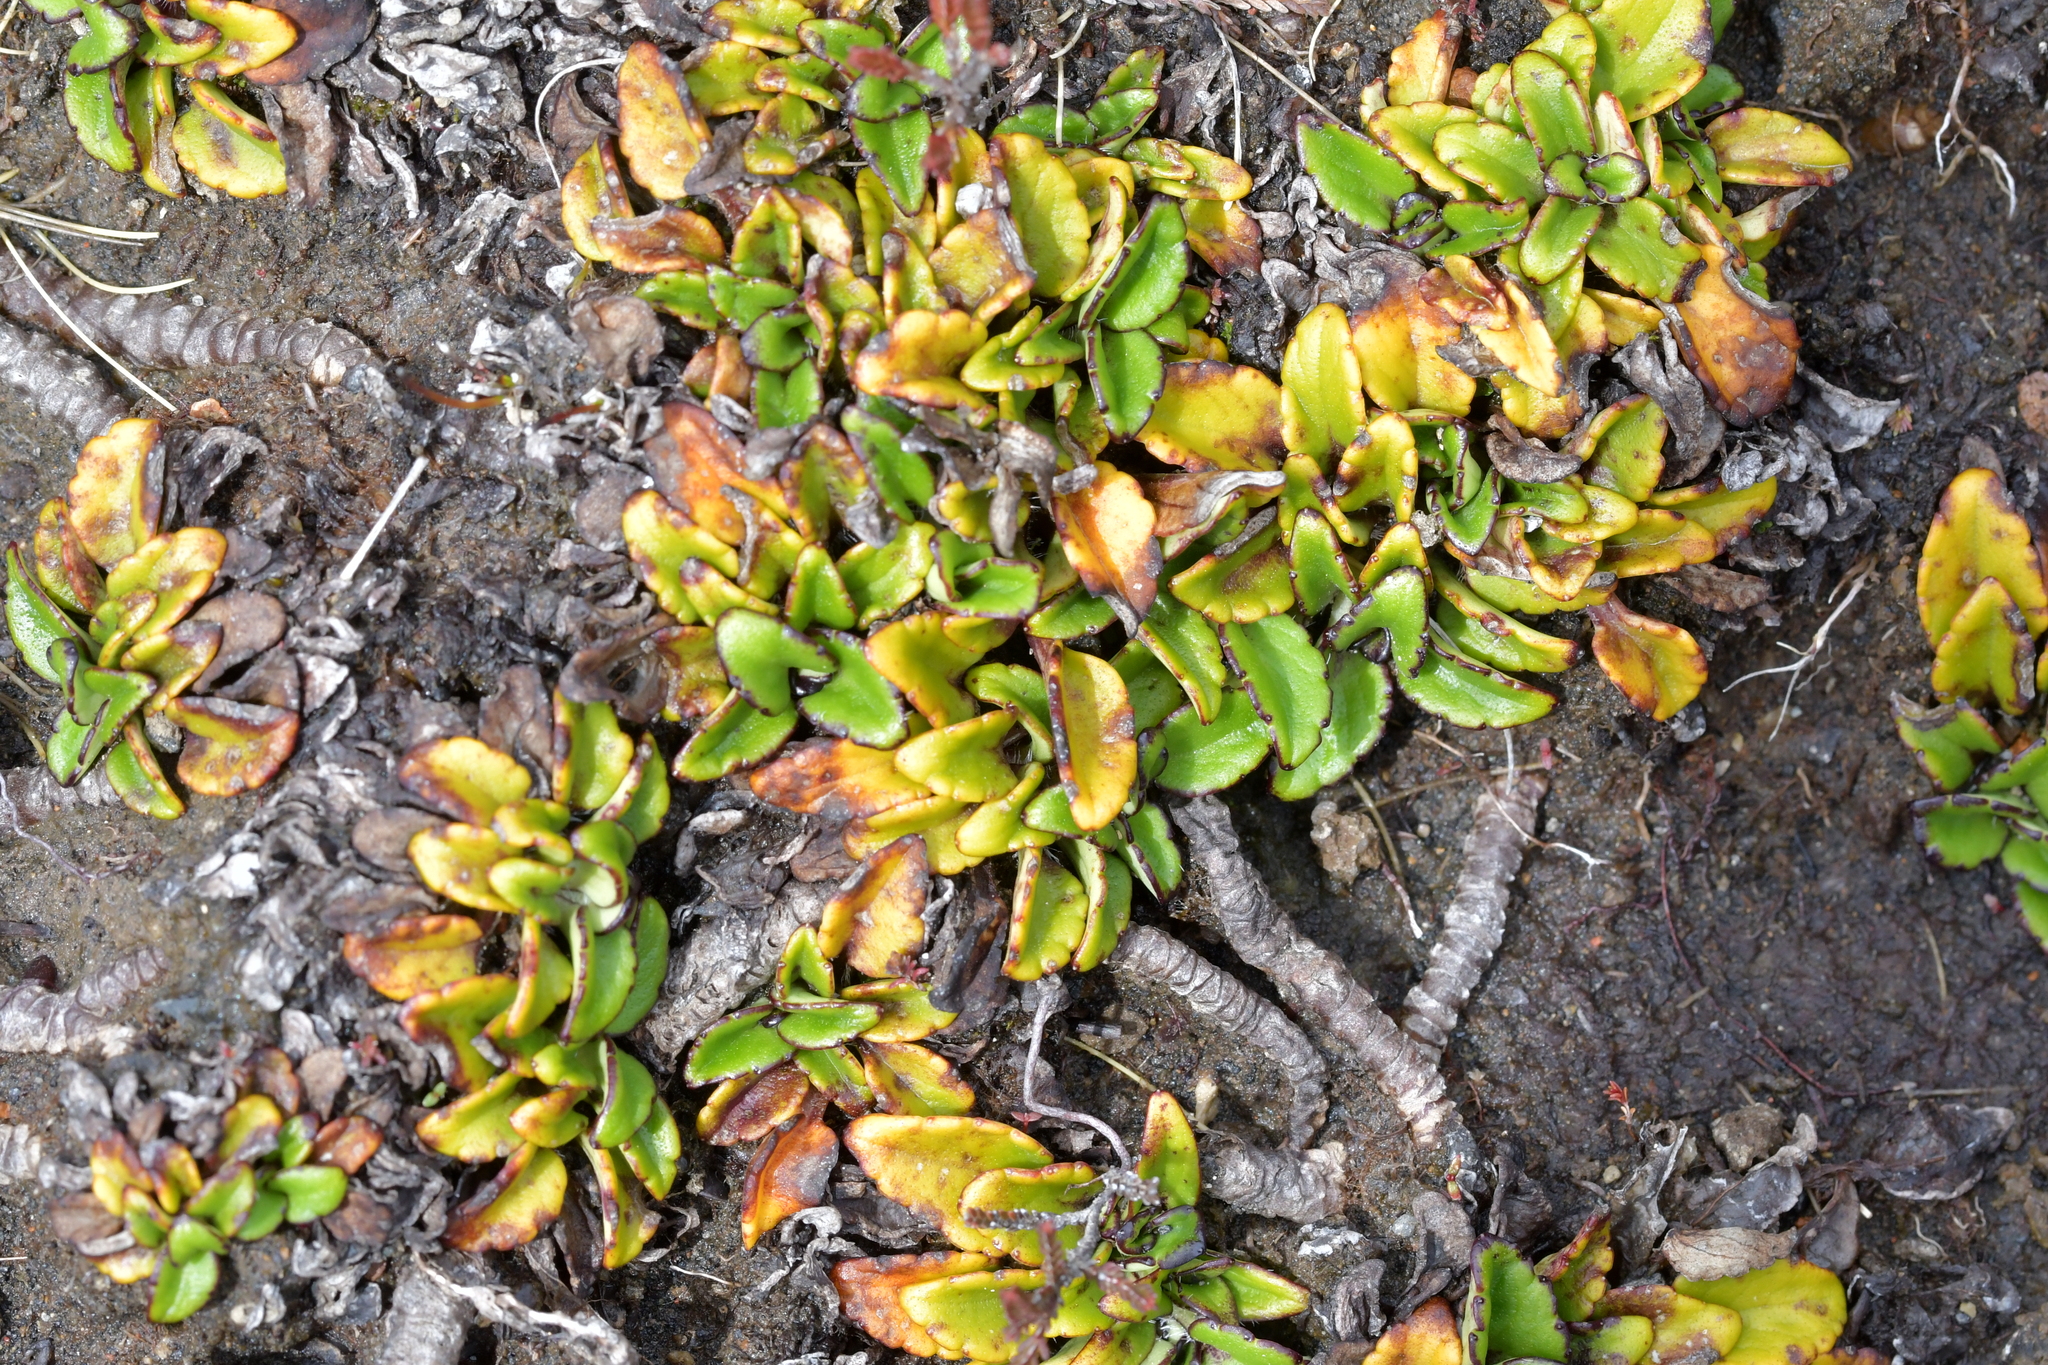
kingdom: Plantae
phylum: Tracheophyta
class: Magnoliopsida
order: Lamiales
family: Plantaginaceae
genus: Ourisia
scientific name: Ourisia vulcanica
